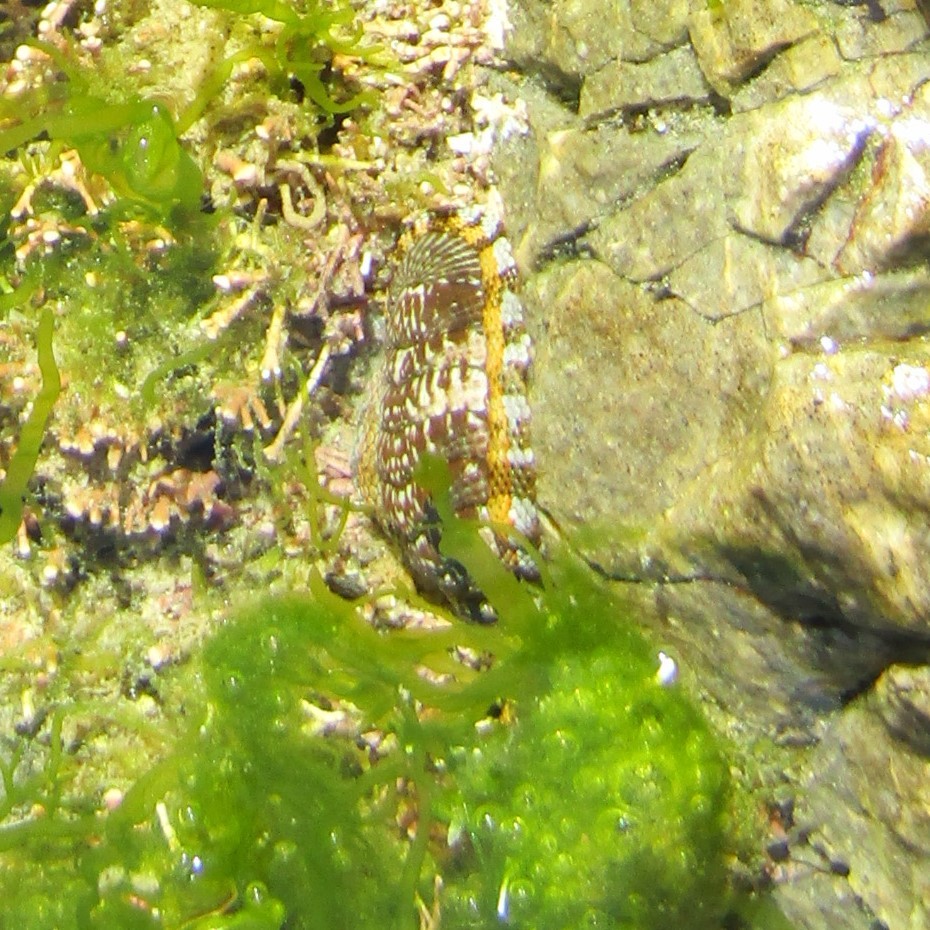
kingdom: Animalia
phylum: Mollusca
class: Polyplacophora
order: Chitonida
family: Chitonidae
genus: Sypharochiton
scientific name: Sypharochiton sinclairi
